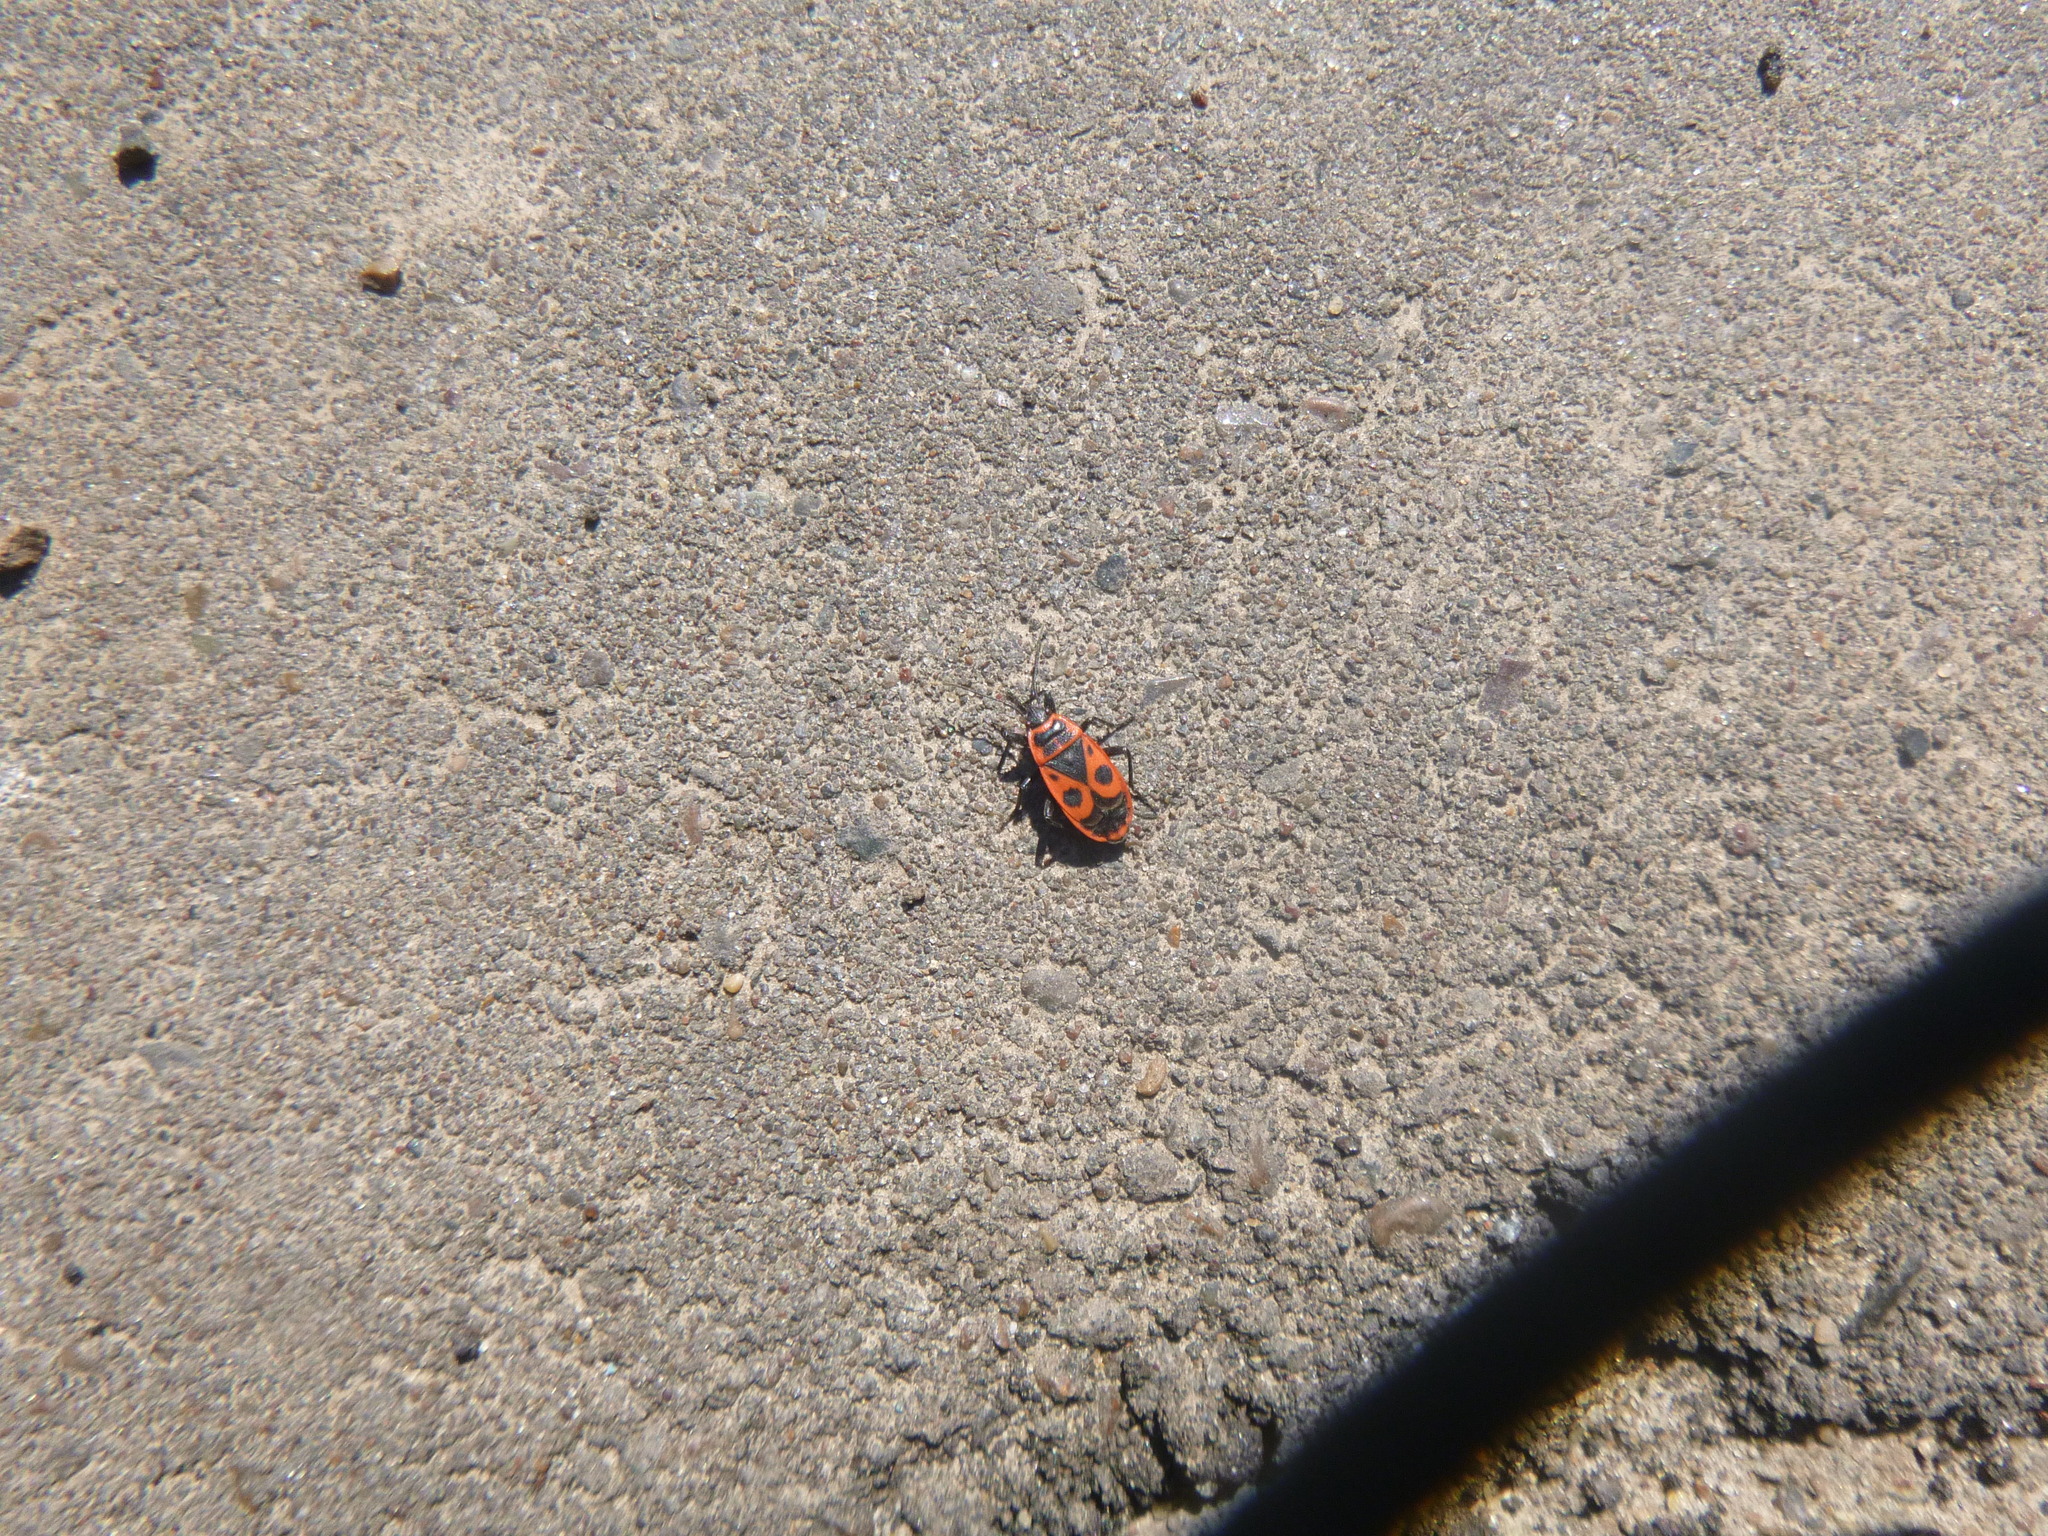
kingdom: Animalia
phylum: Arthropoda
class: Insecta
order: Hemiptera
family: Pyrrhocoridae
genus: Pyrrhocoris
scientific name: Pyrrhocoris apterus
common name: Firebug
